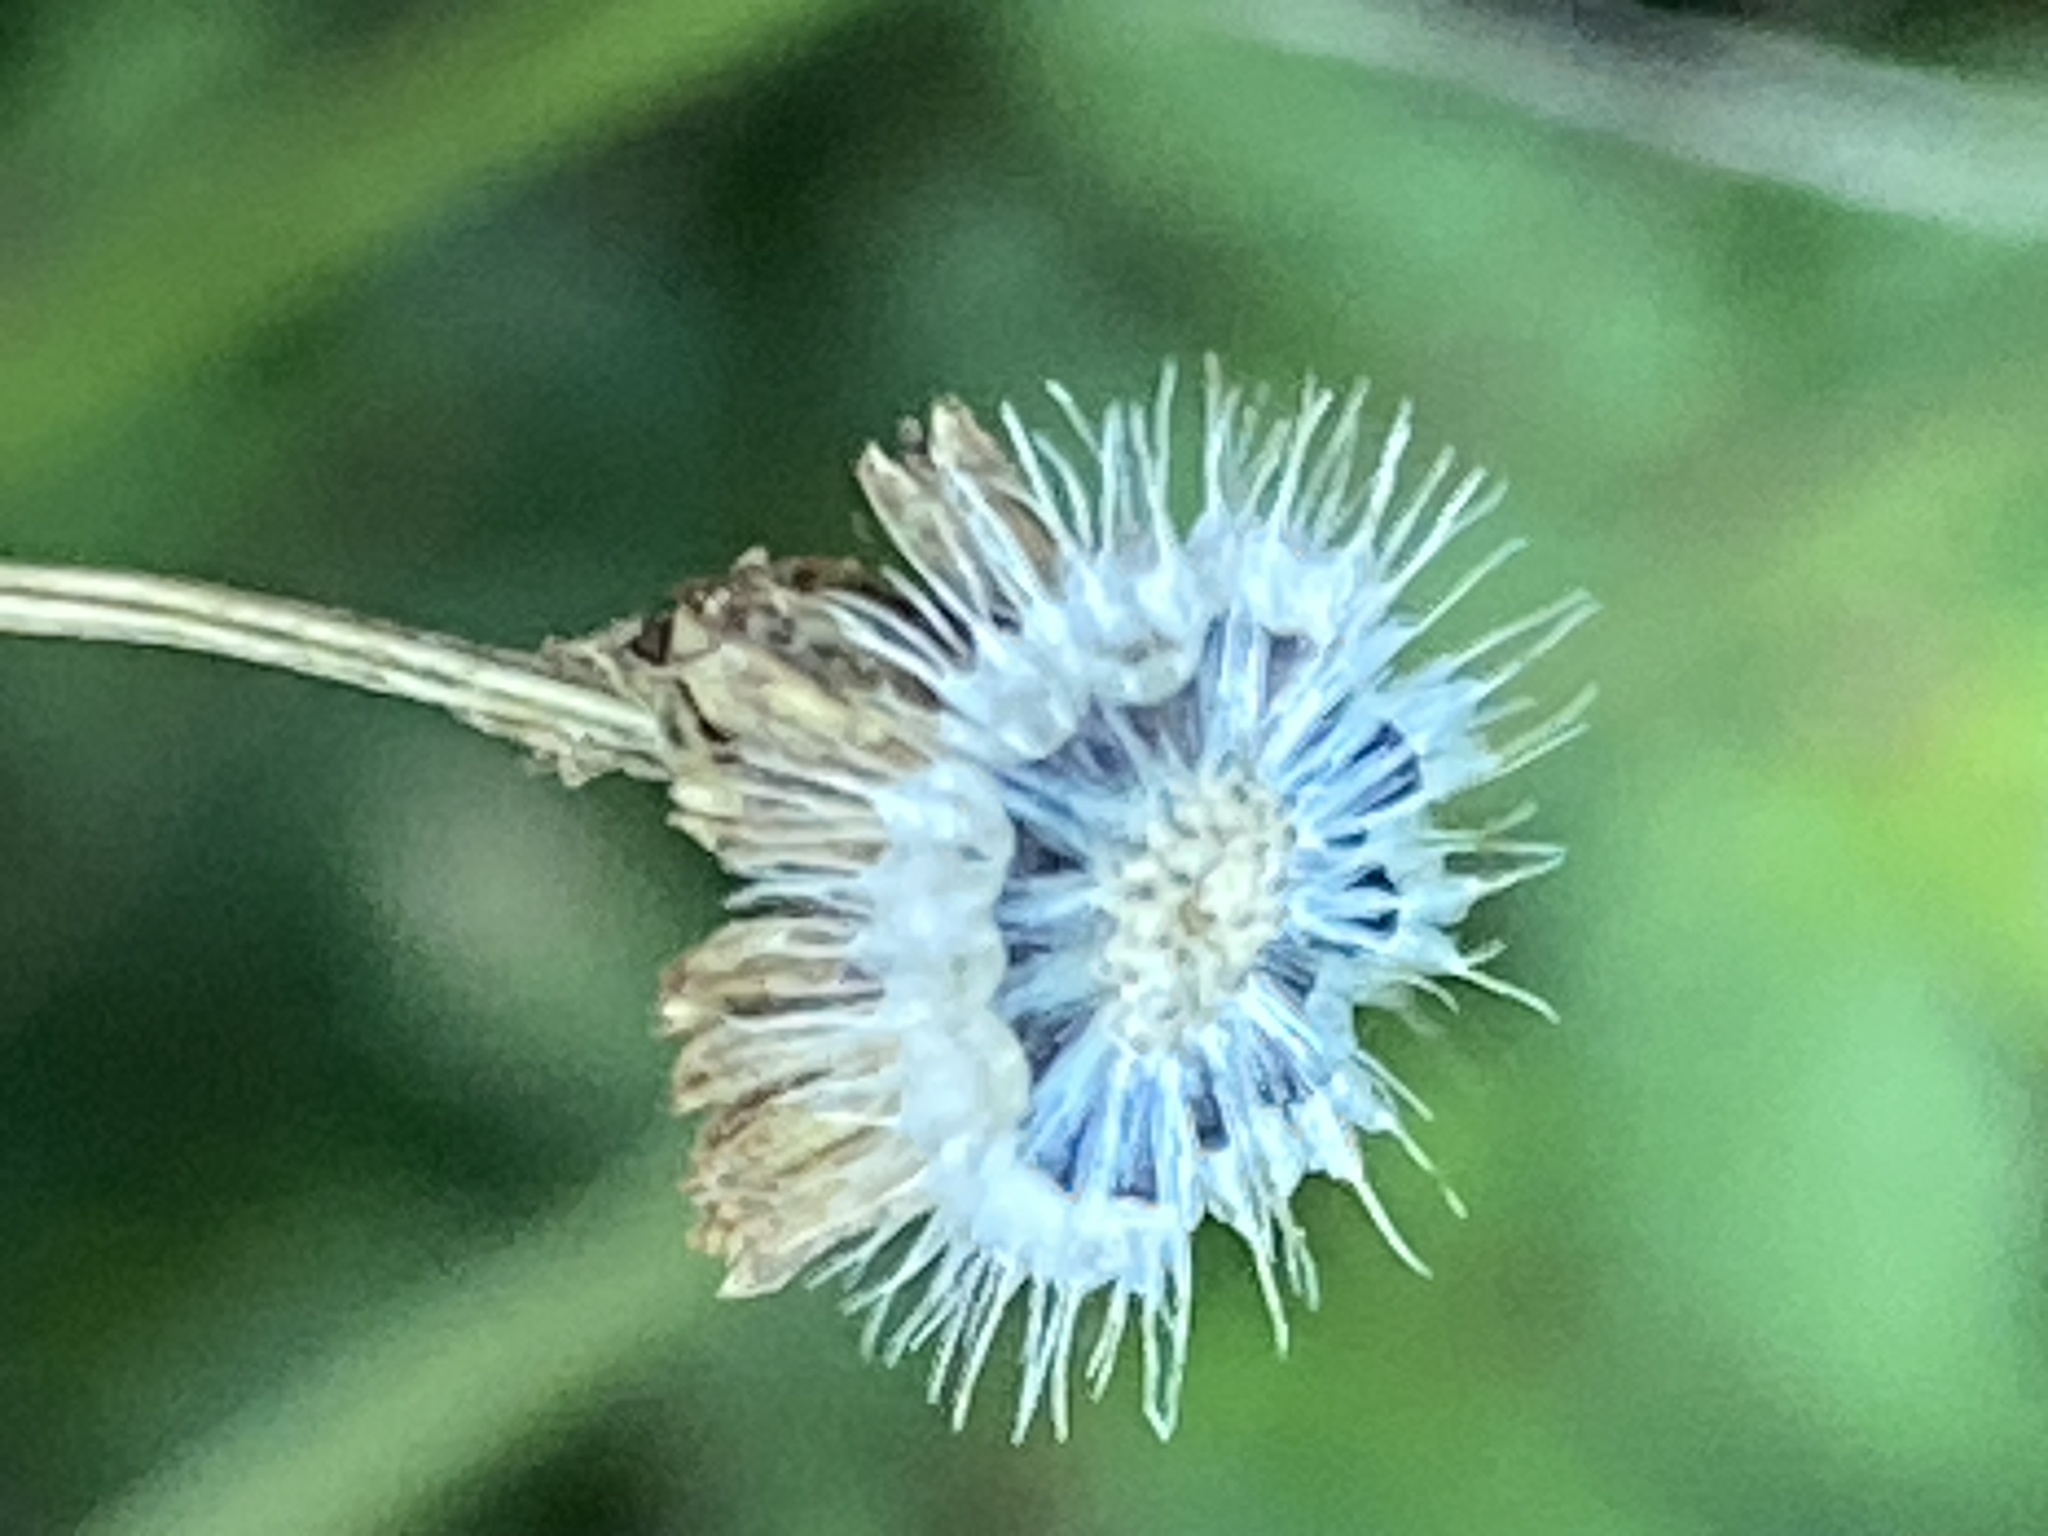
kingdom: Plantae
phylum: Tracheophyta
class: Magnoliopsida
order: Asterales
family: Asteraceae
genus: Helenium
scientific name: Helenium amarum
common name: Bitter sneezeweed
